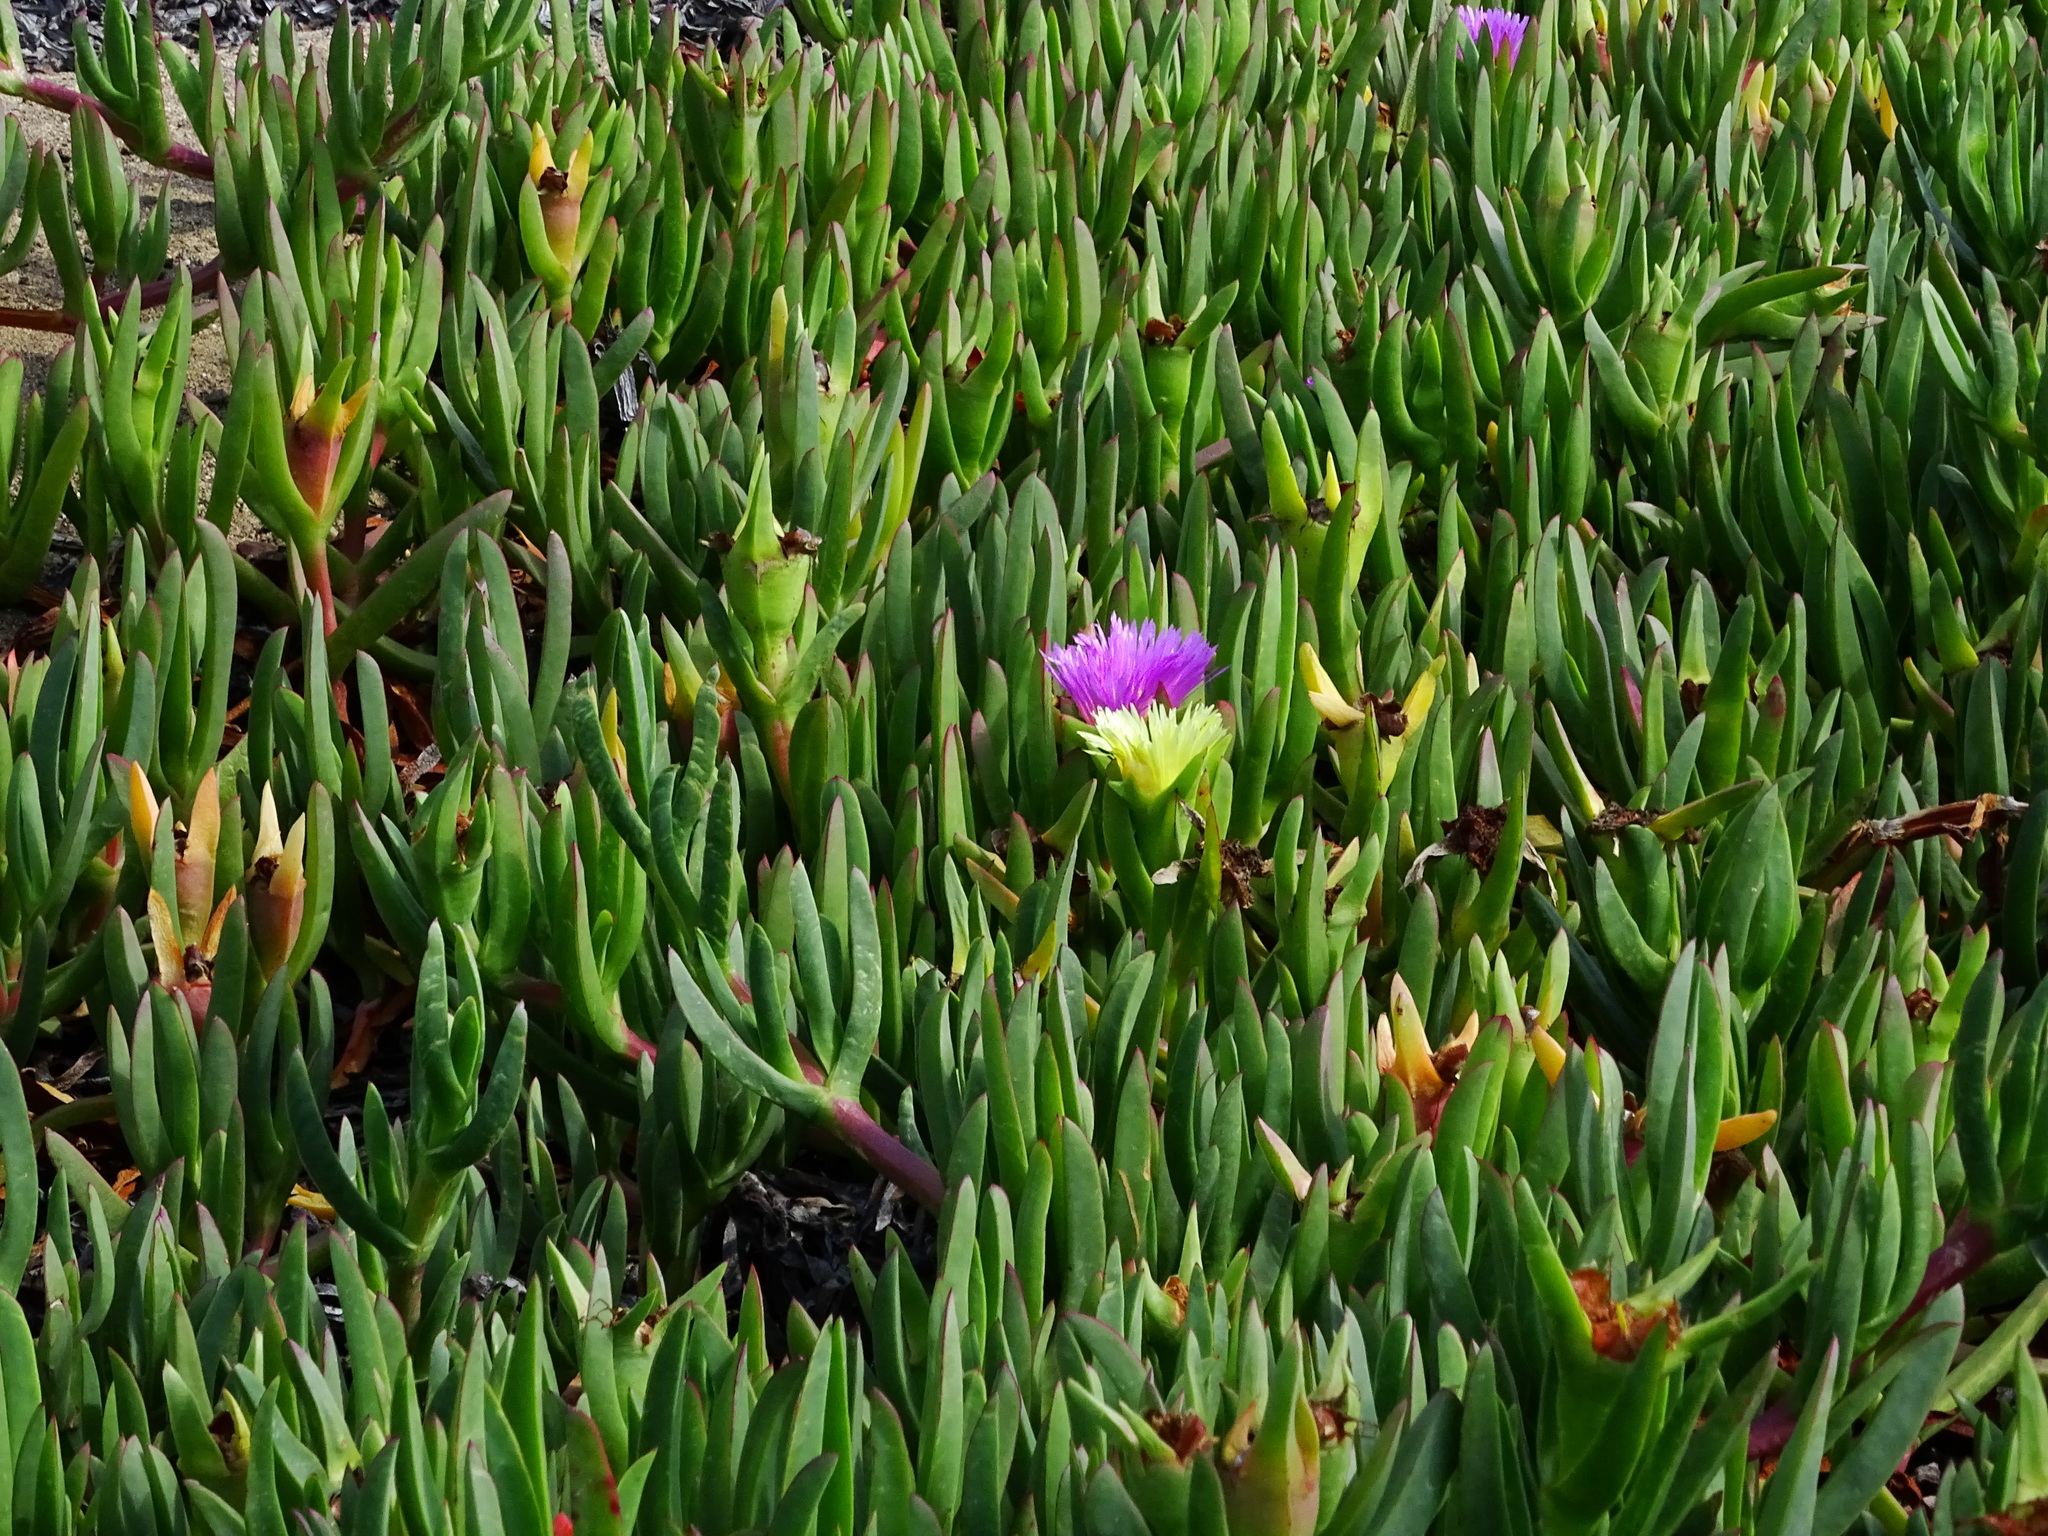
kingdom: Plantae
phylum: Tracheophyta
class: Magnoliopsida
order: Caryophyllales
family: Aizoaceae
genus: Carpobrotus
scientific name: Carpobrotus edulis
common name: Hottentot-fig
